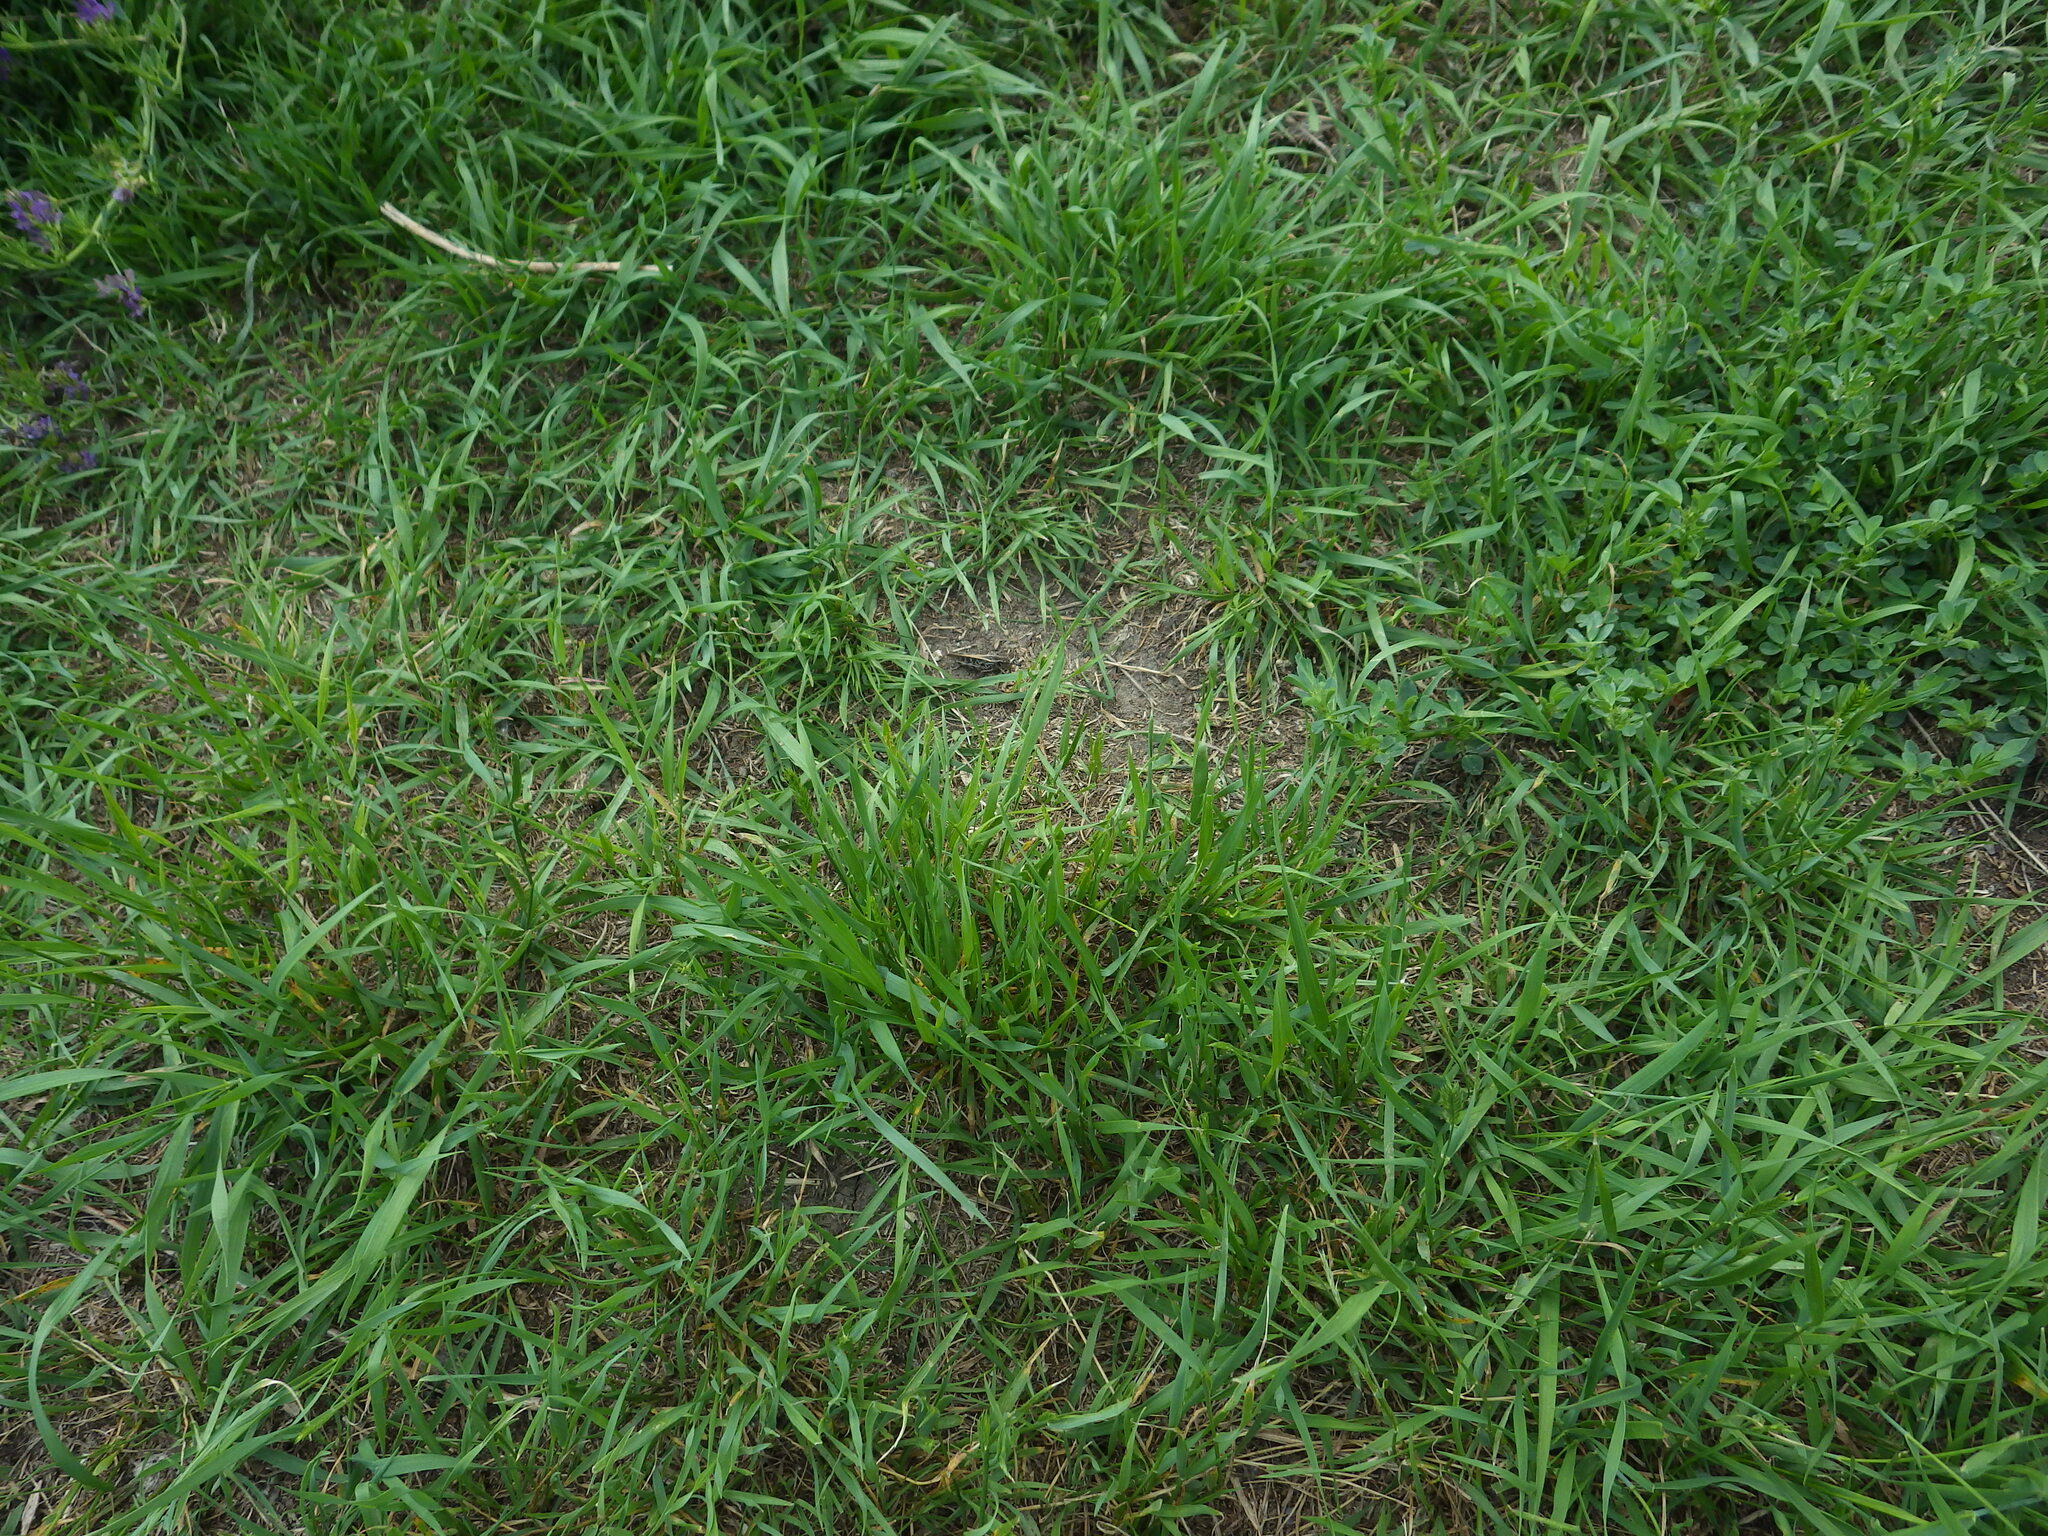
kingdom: Animalia
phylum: Arthropoda
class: Insecta
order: Orthoptera
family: Acrididae
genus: Camnula
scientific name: Camnula pellucida
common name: Clear-winged grasshopper
